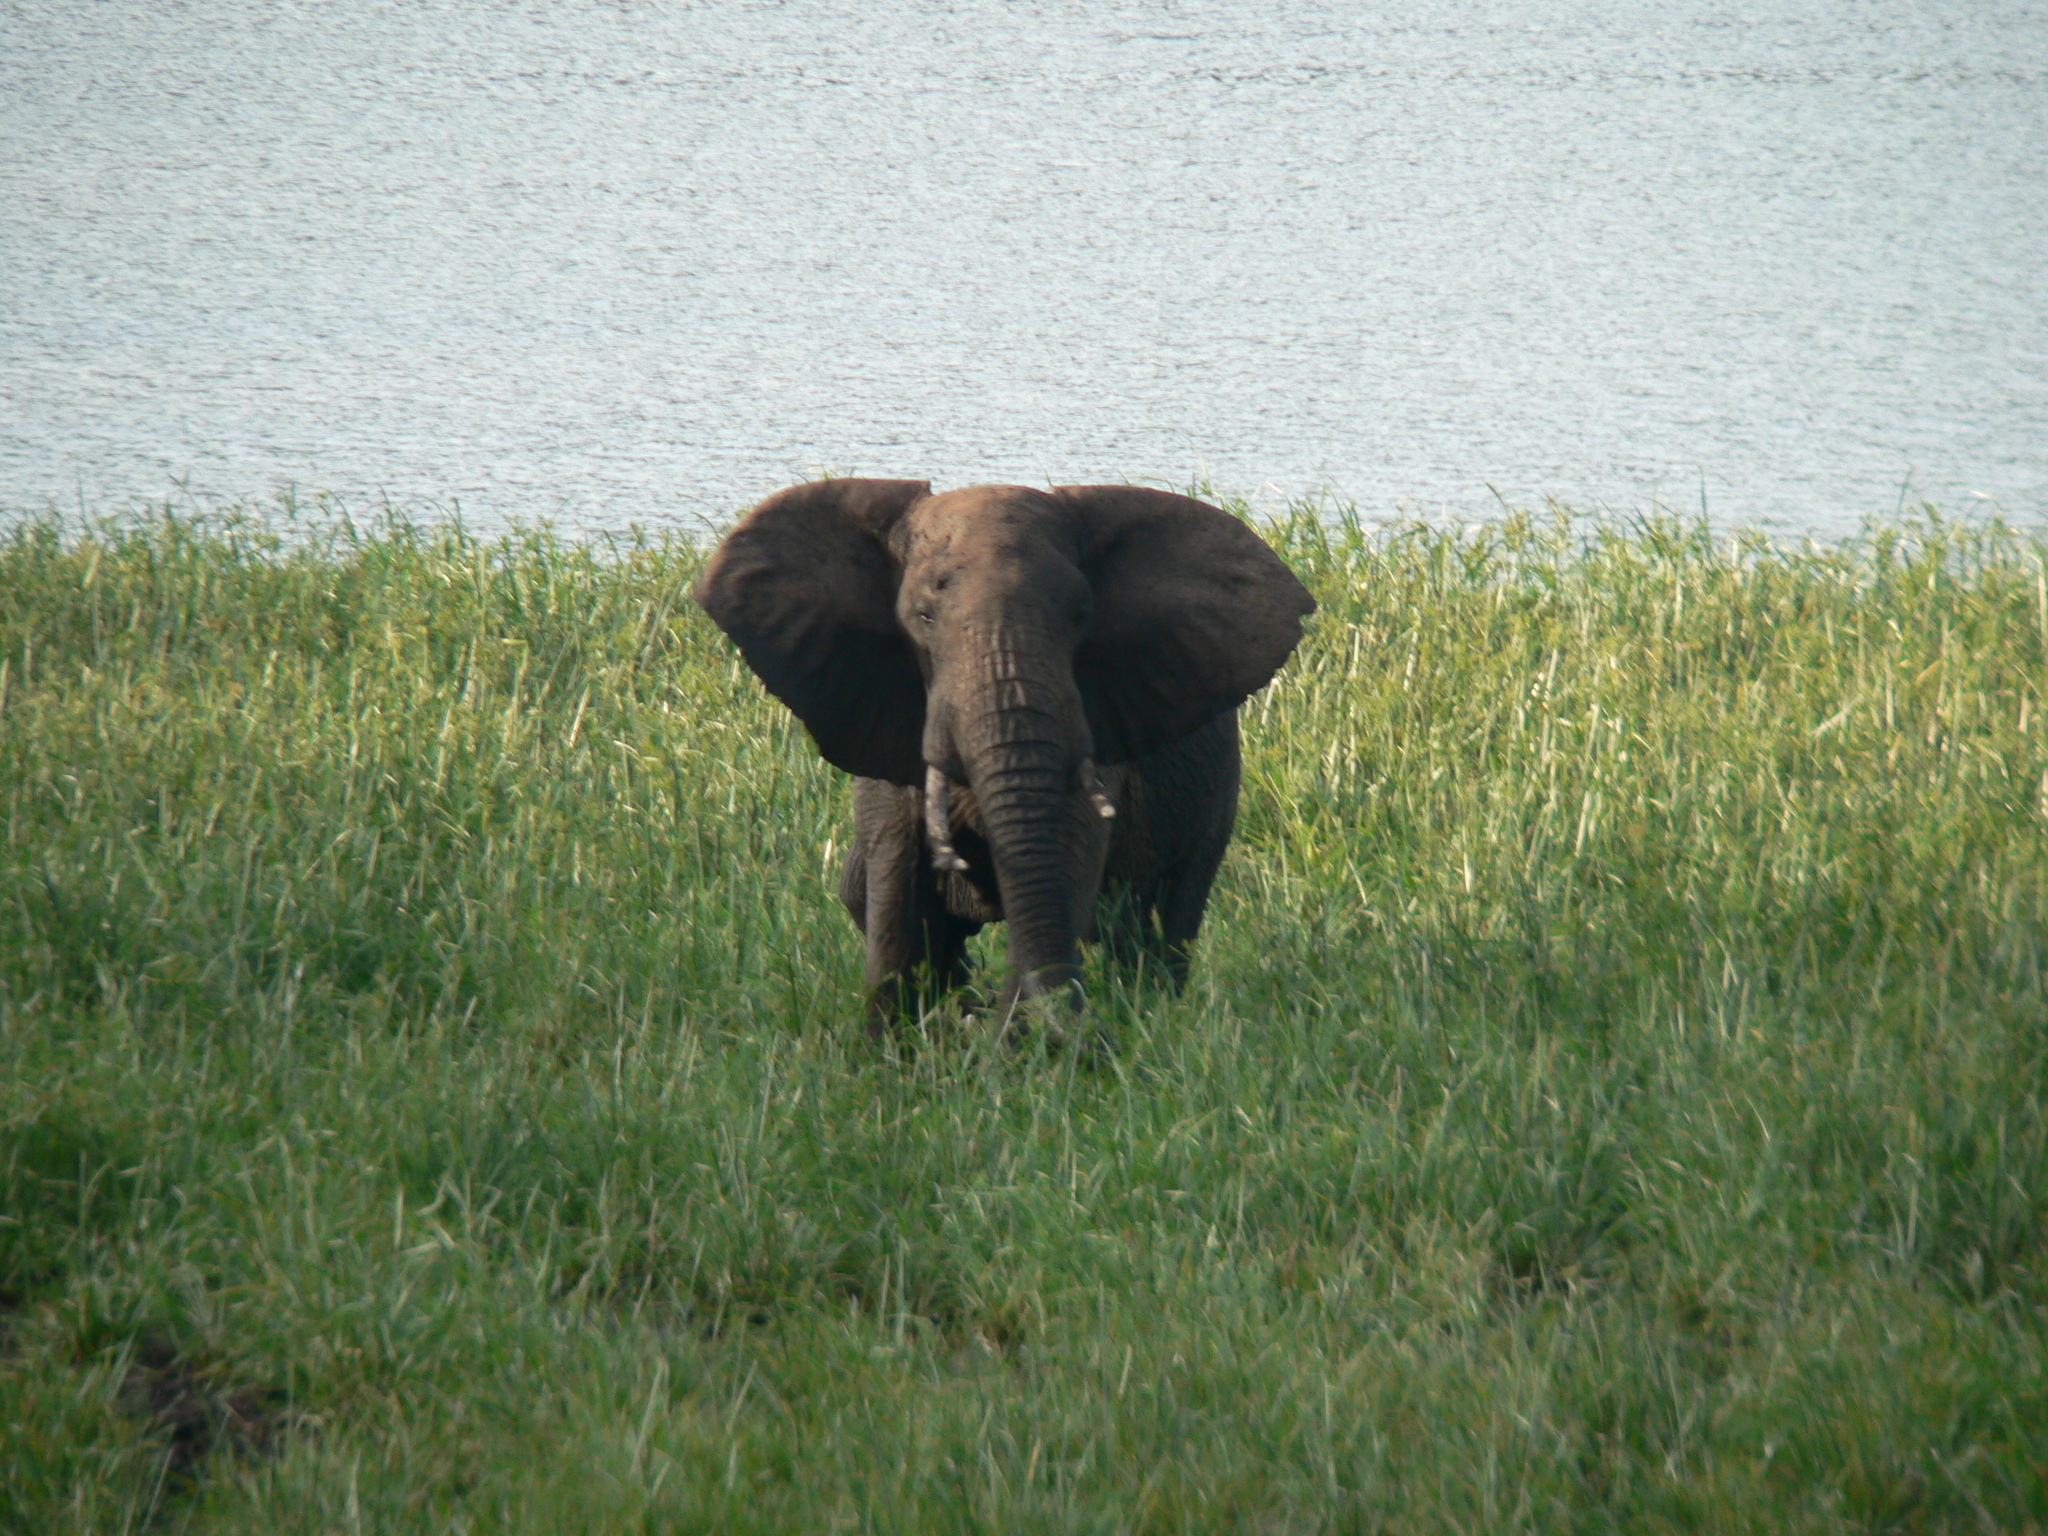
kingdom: Animalia
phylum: Chordata
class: Mammalia
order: Proboscidea
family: Elephantidae
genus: Loxodonta
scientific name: Loxodonta africana
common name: African elephant
